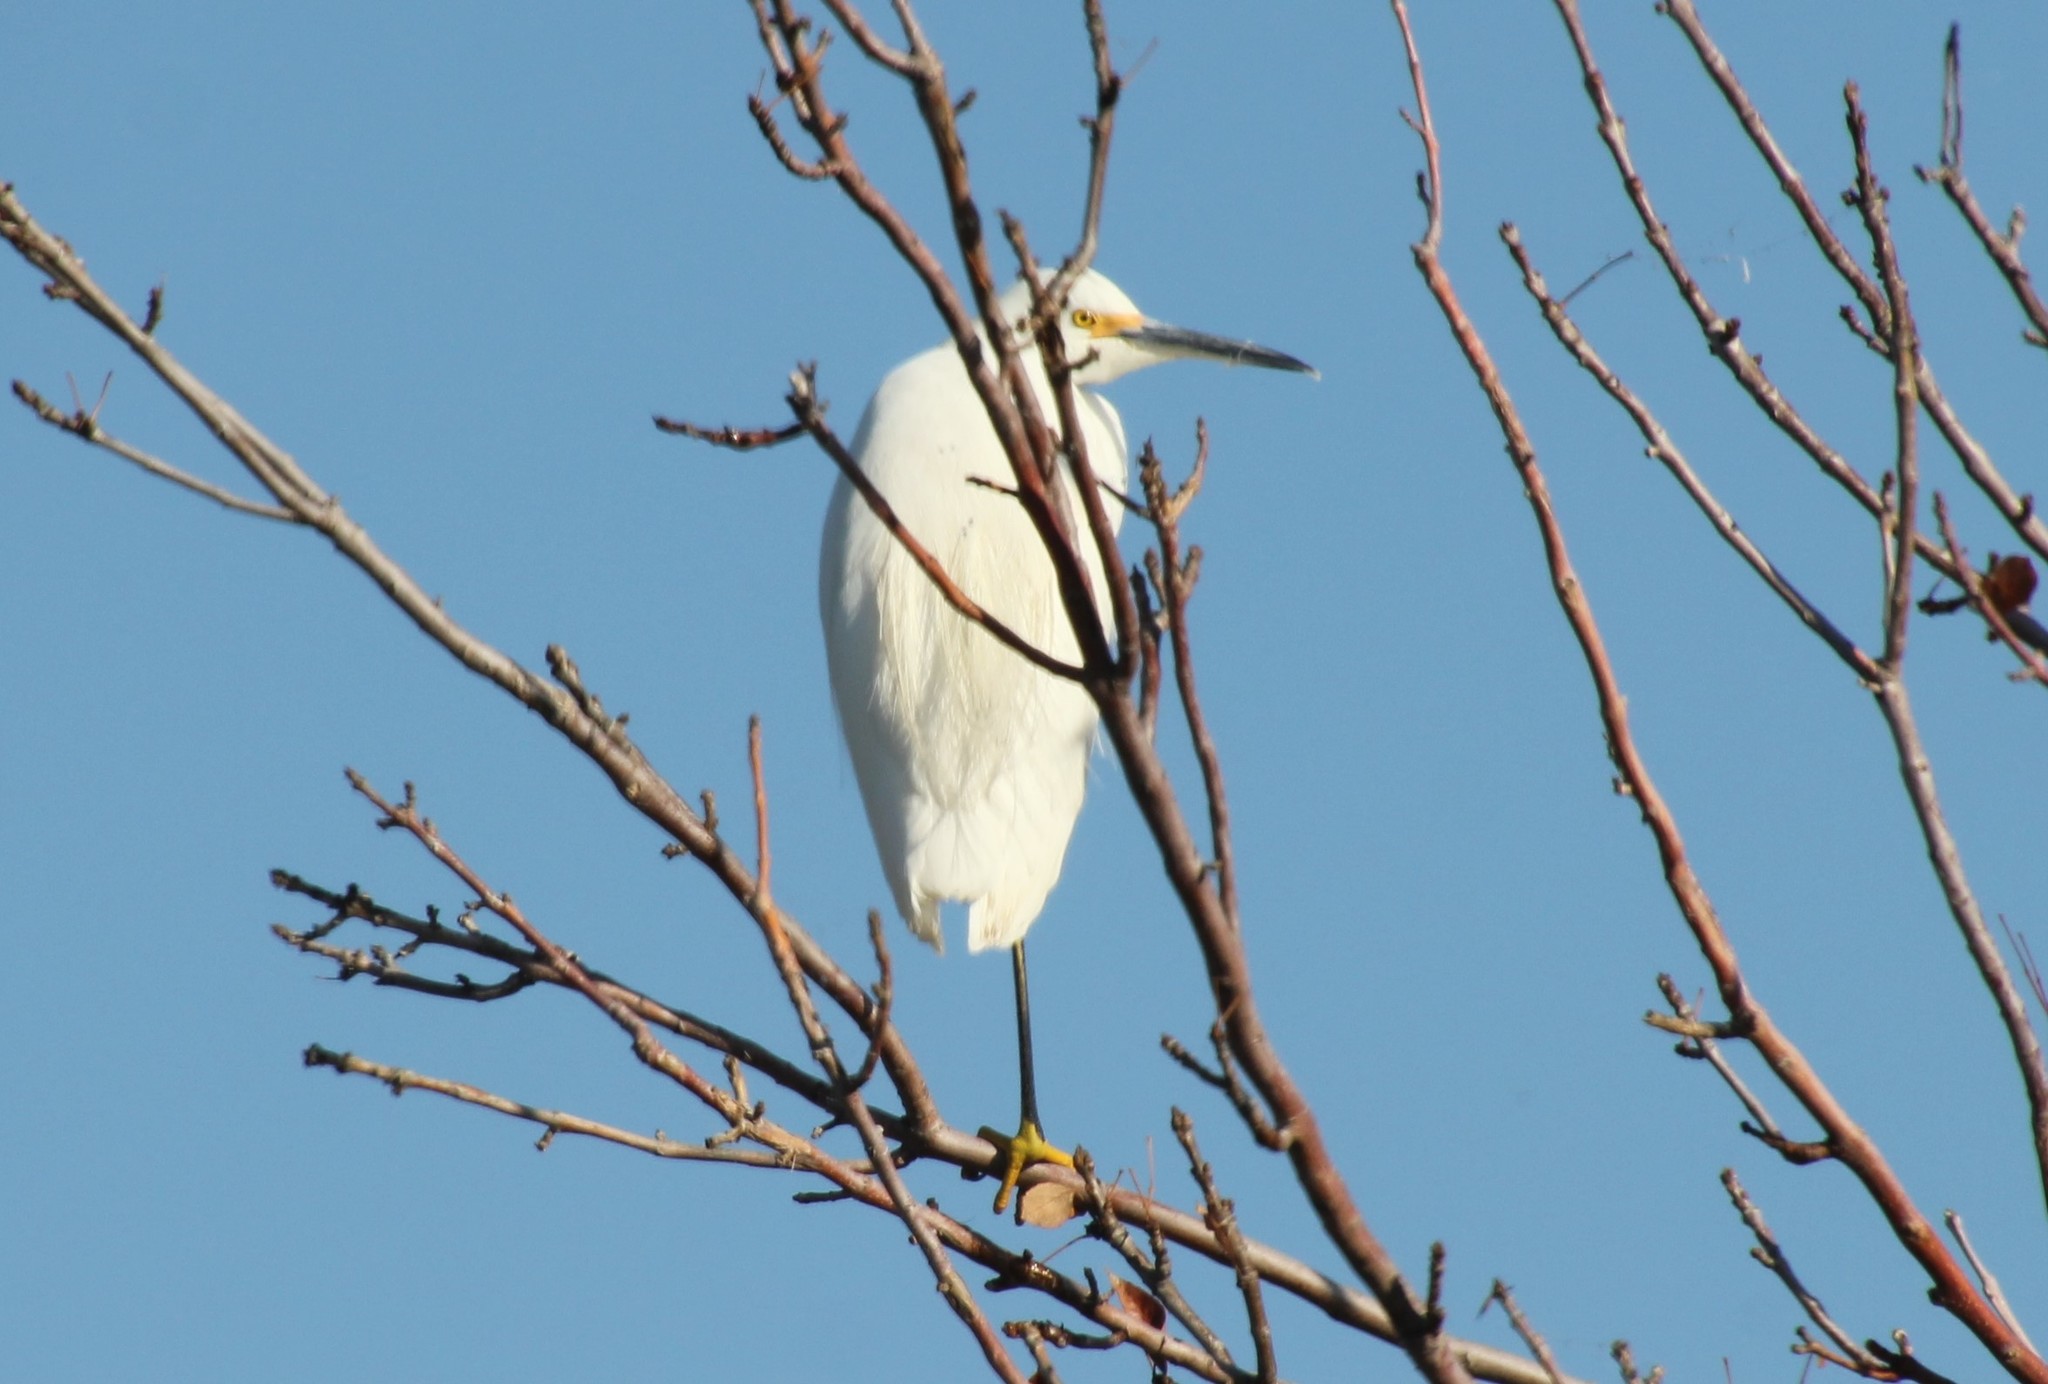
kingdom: Animalia
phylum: Chordata
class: Aves
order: Pelecaniformes
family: Ardeidae
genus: Egretta
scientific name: Egretta thula
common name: Snowy egret
